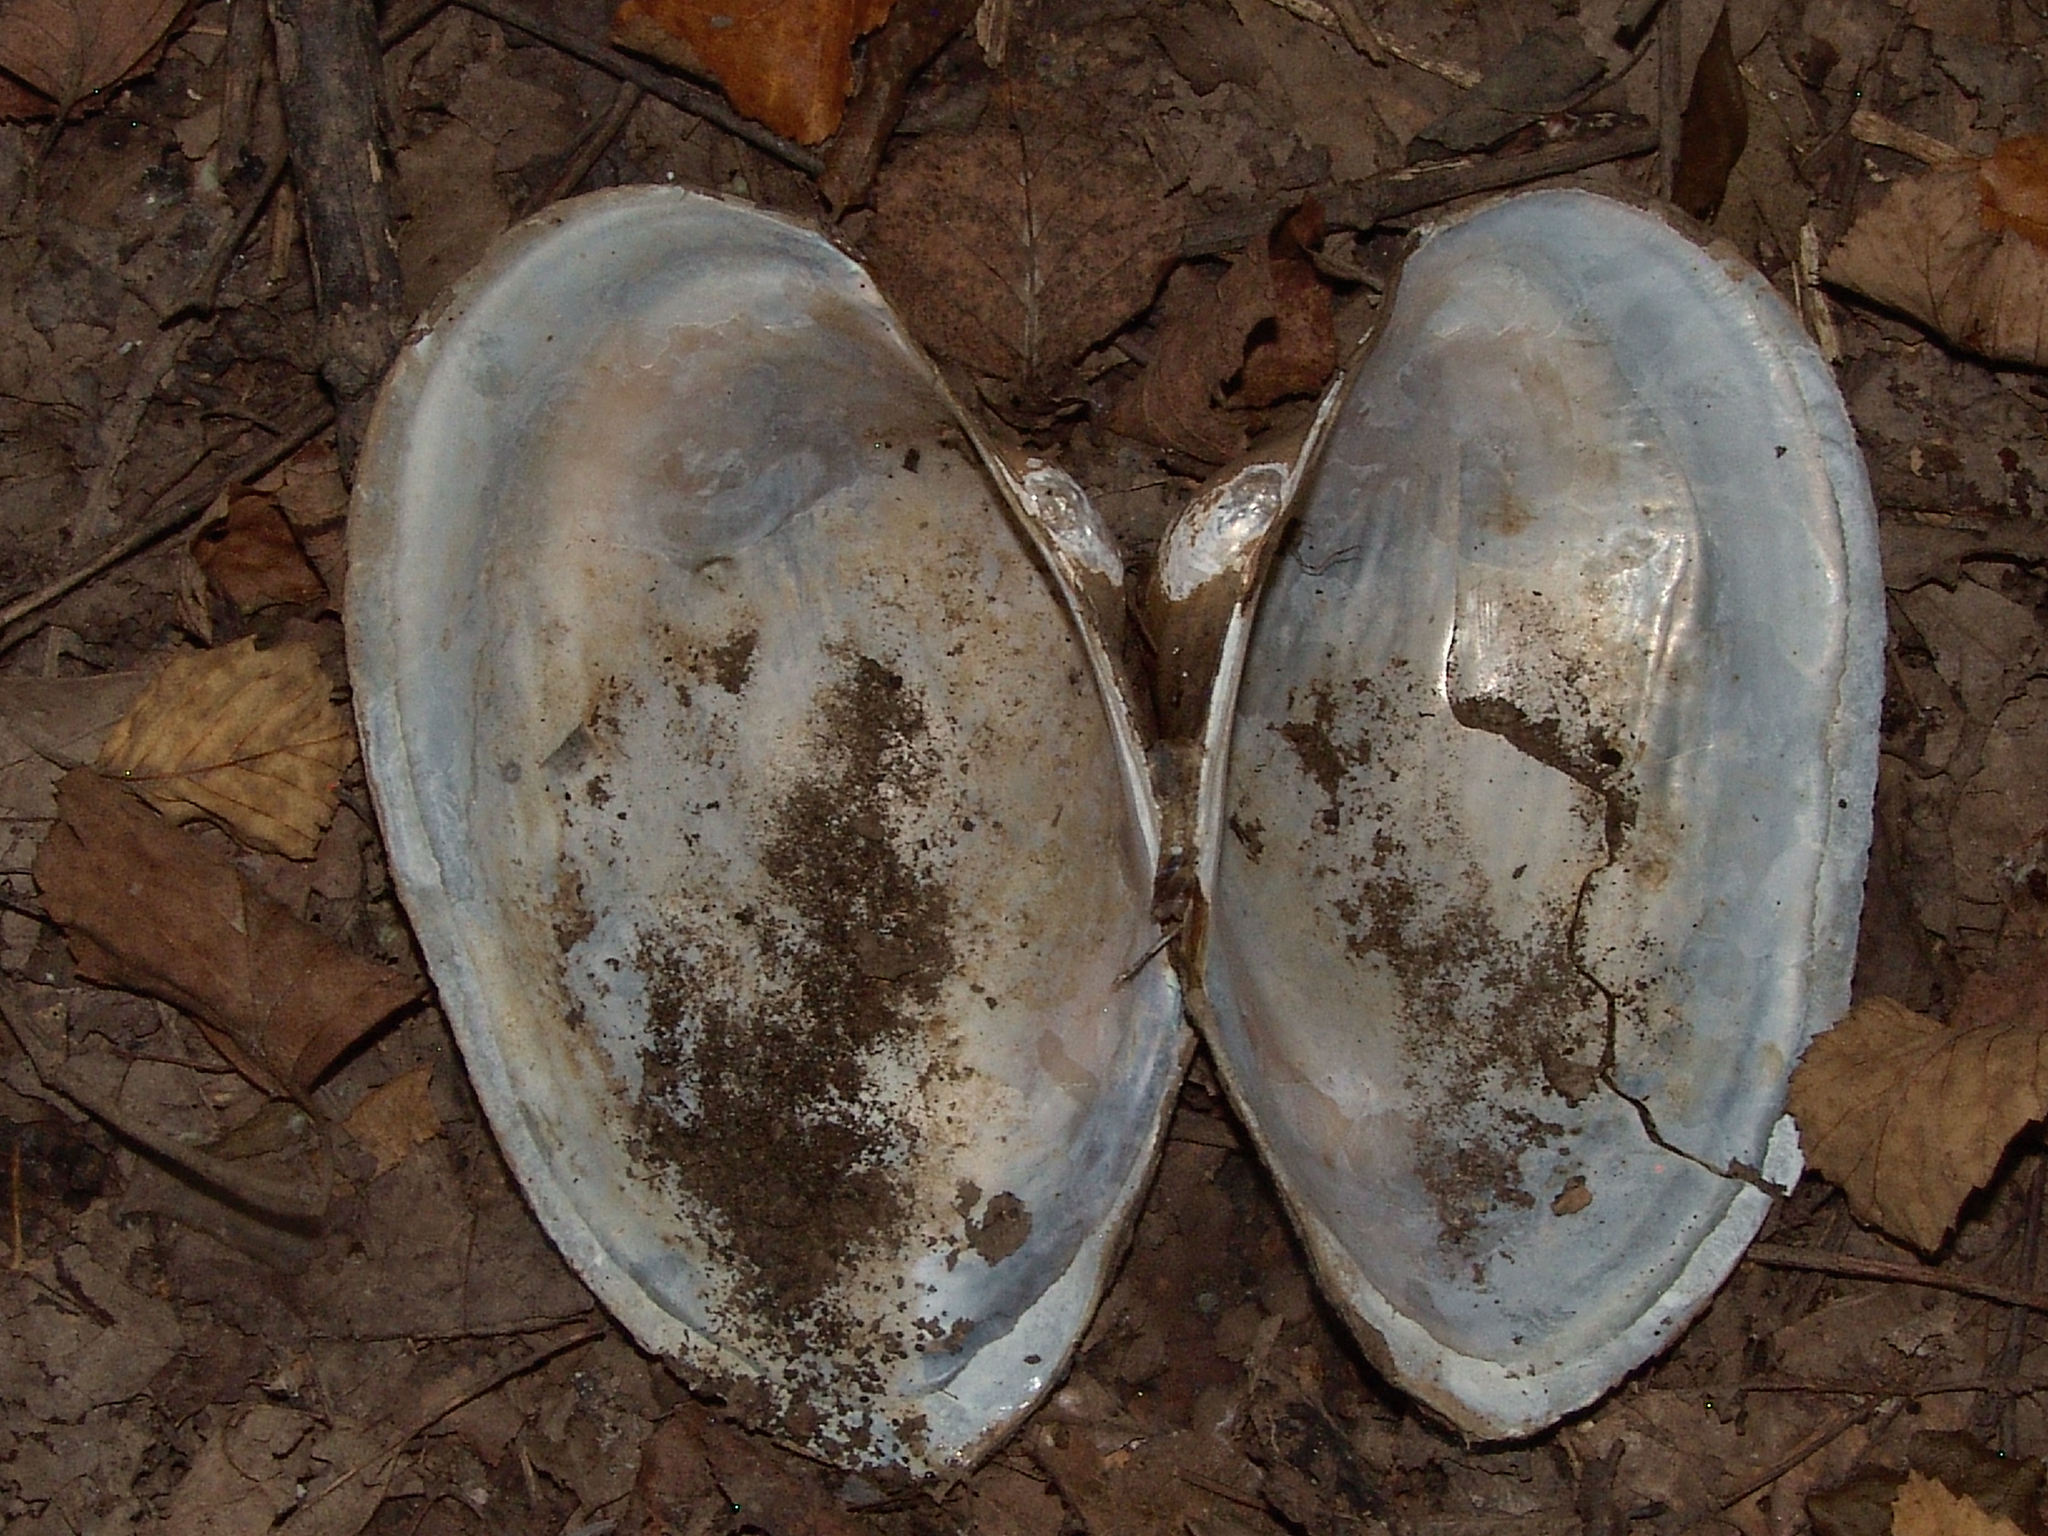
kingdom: Animalia
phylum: Mollusca
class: Bivalvia
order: Unionida
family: Unionidae
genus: Pyganodon
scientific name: Pyganodon grandis
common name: Giant floater
